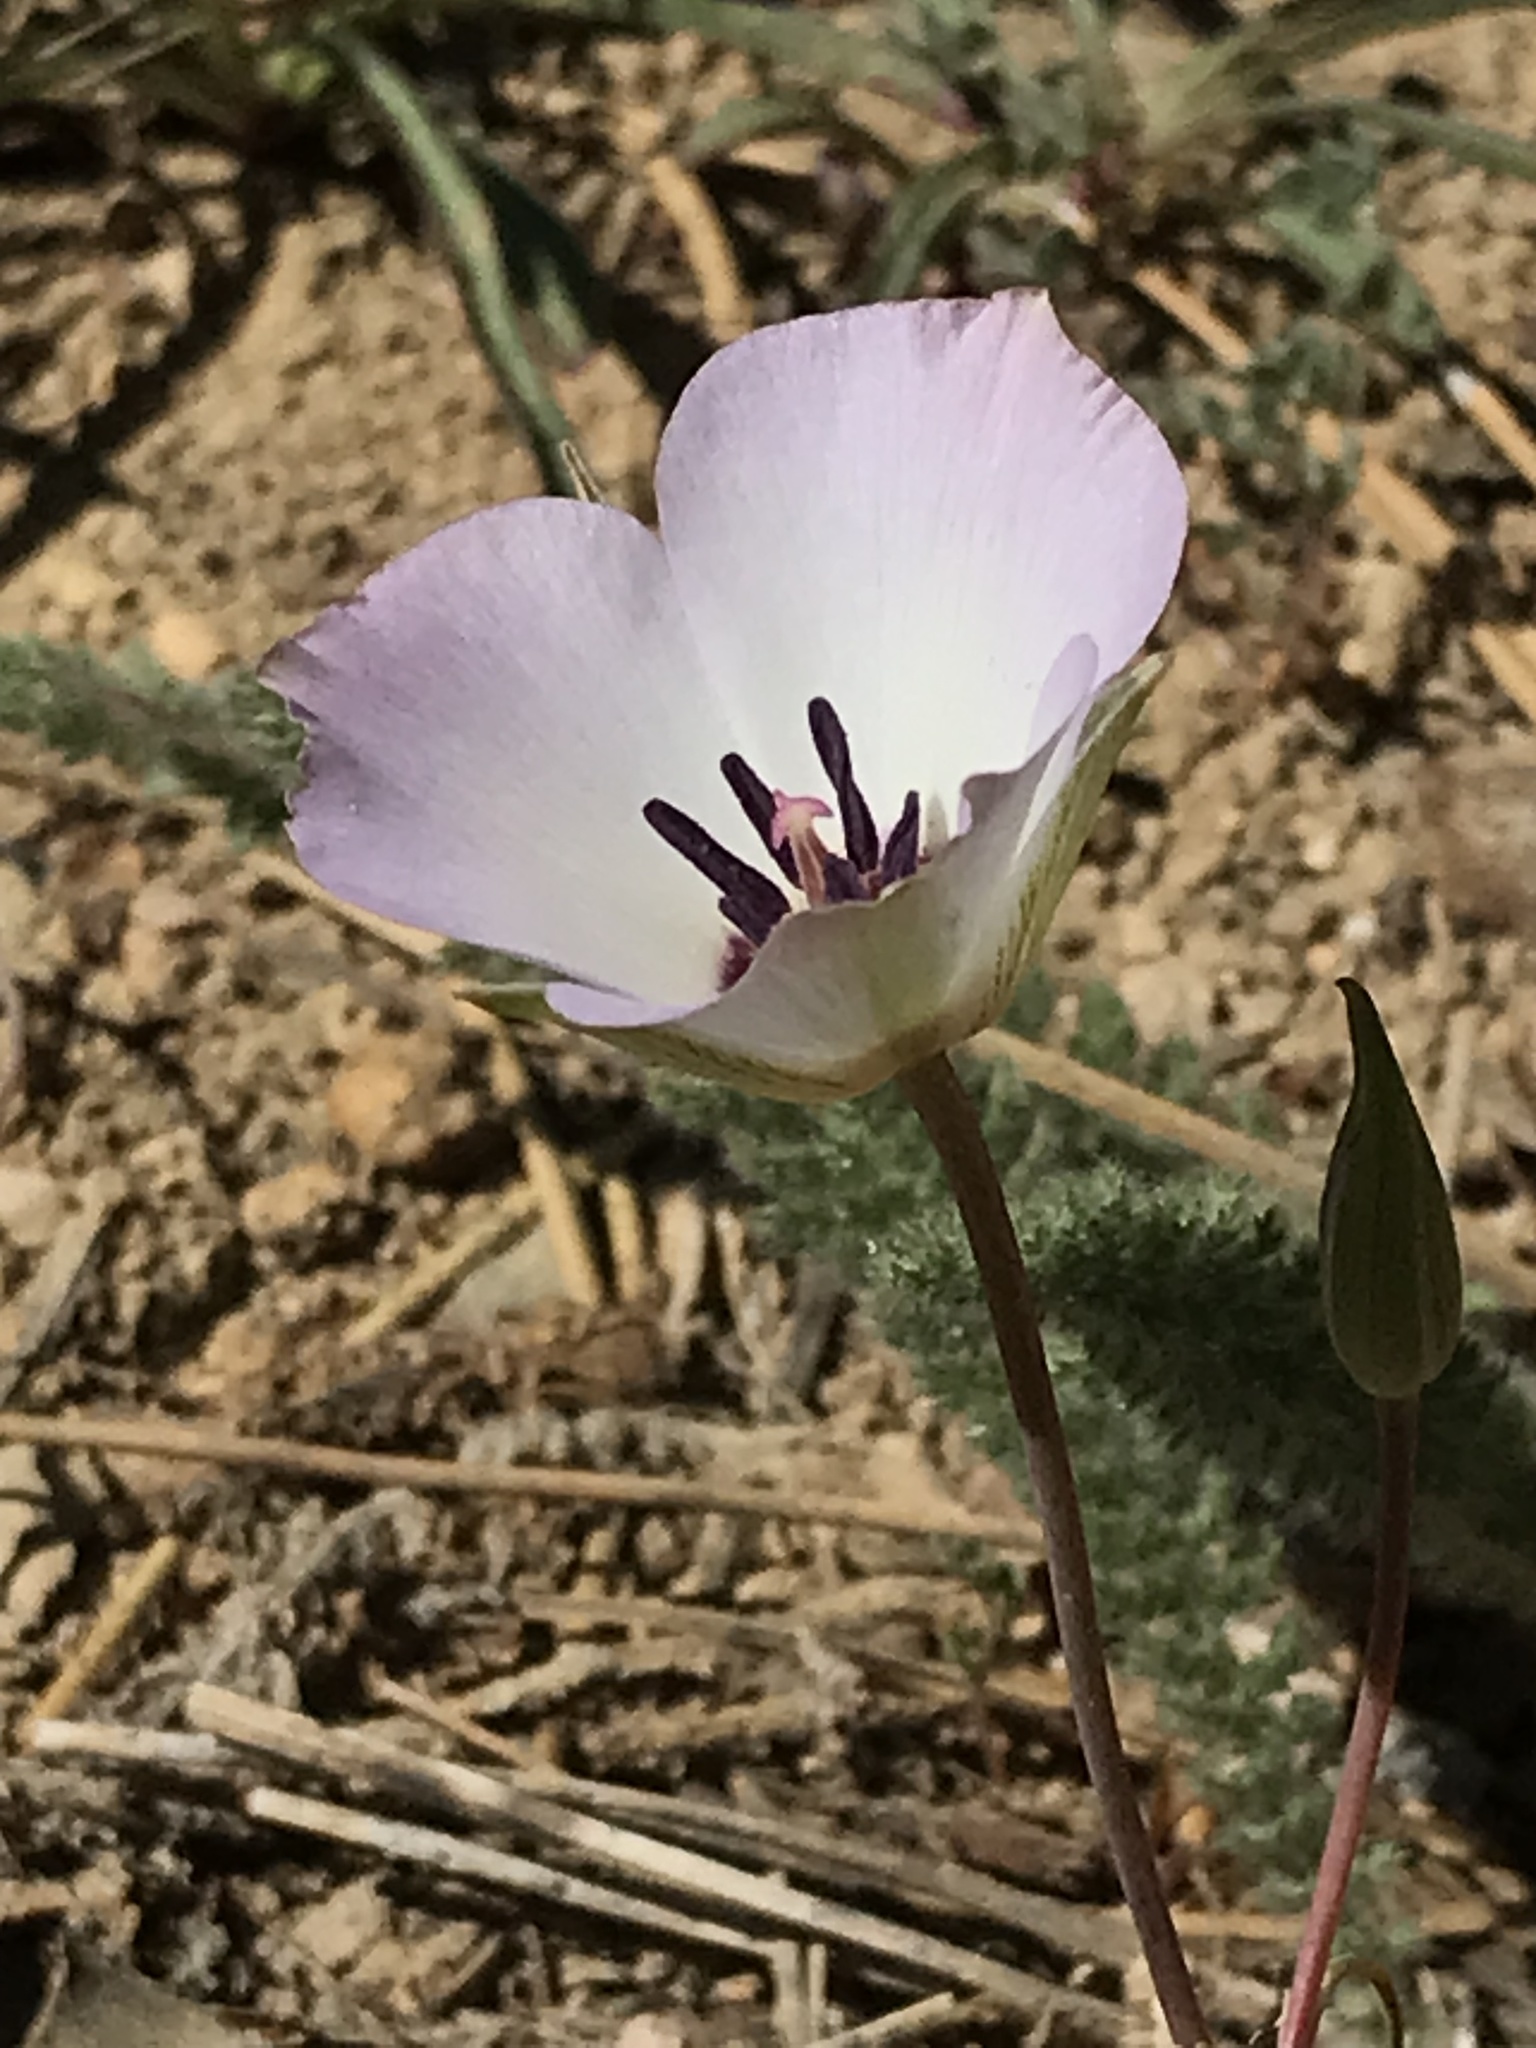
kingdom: Plantae
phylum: Tracheophyta
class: Liliopsida
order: Liliales
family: Liliaceae
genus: Calochortus
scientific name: Calochortus invenustus
